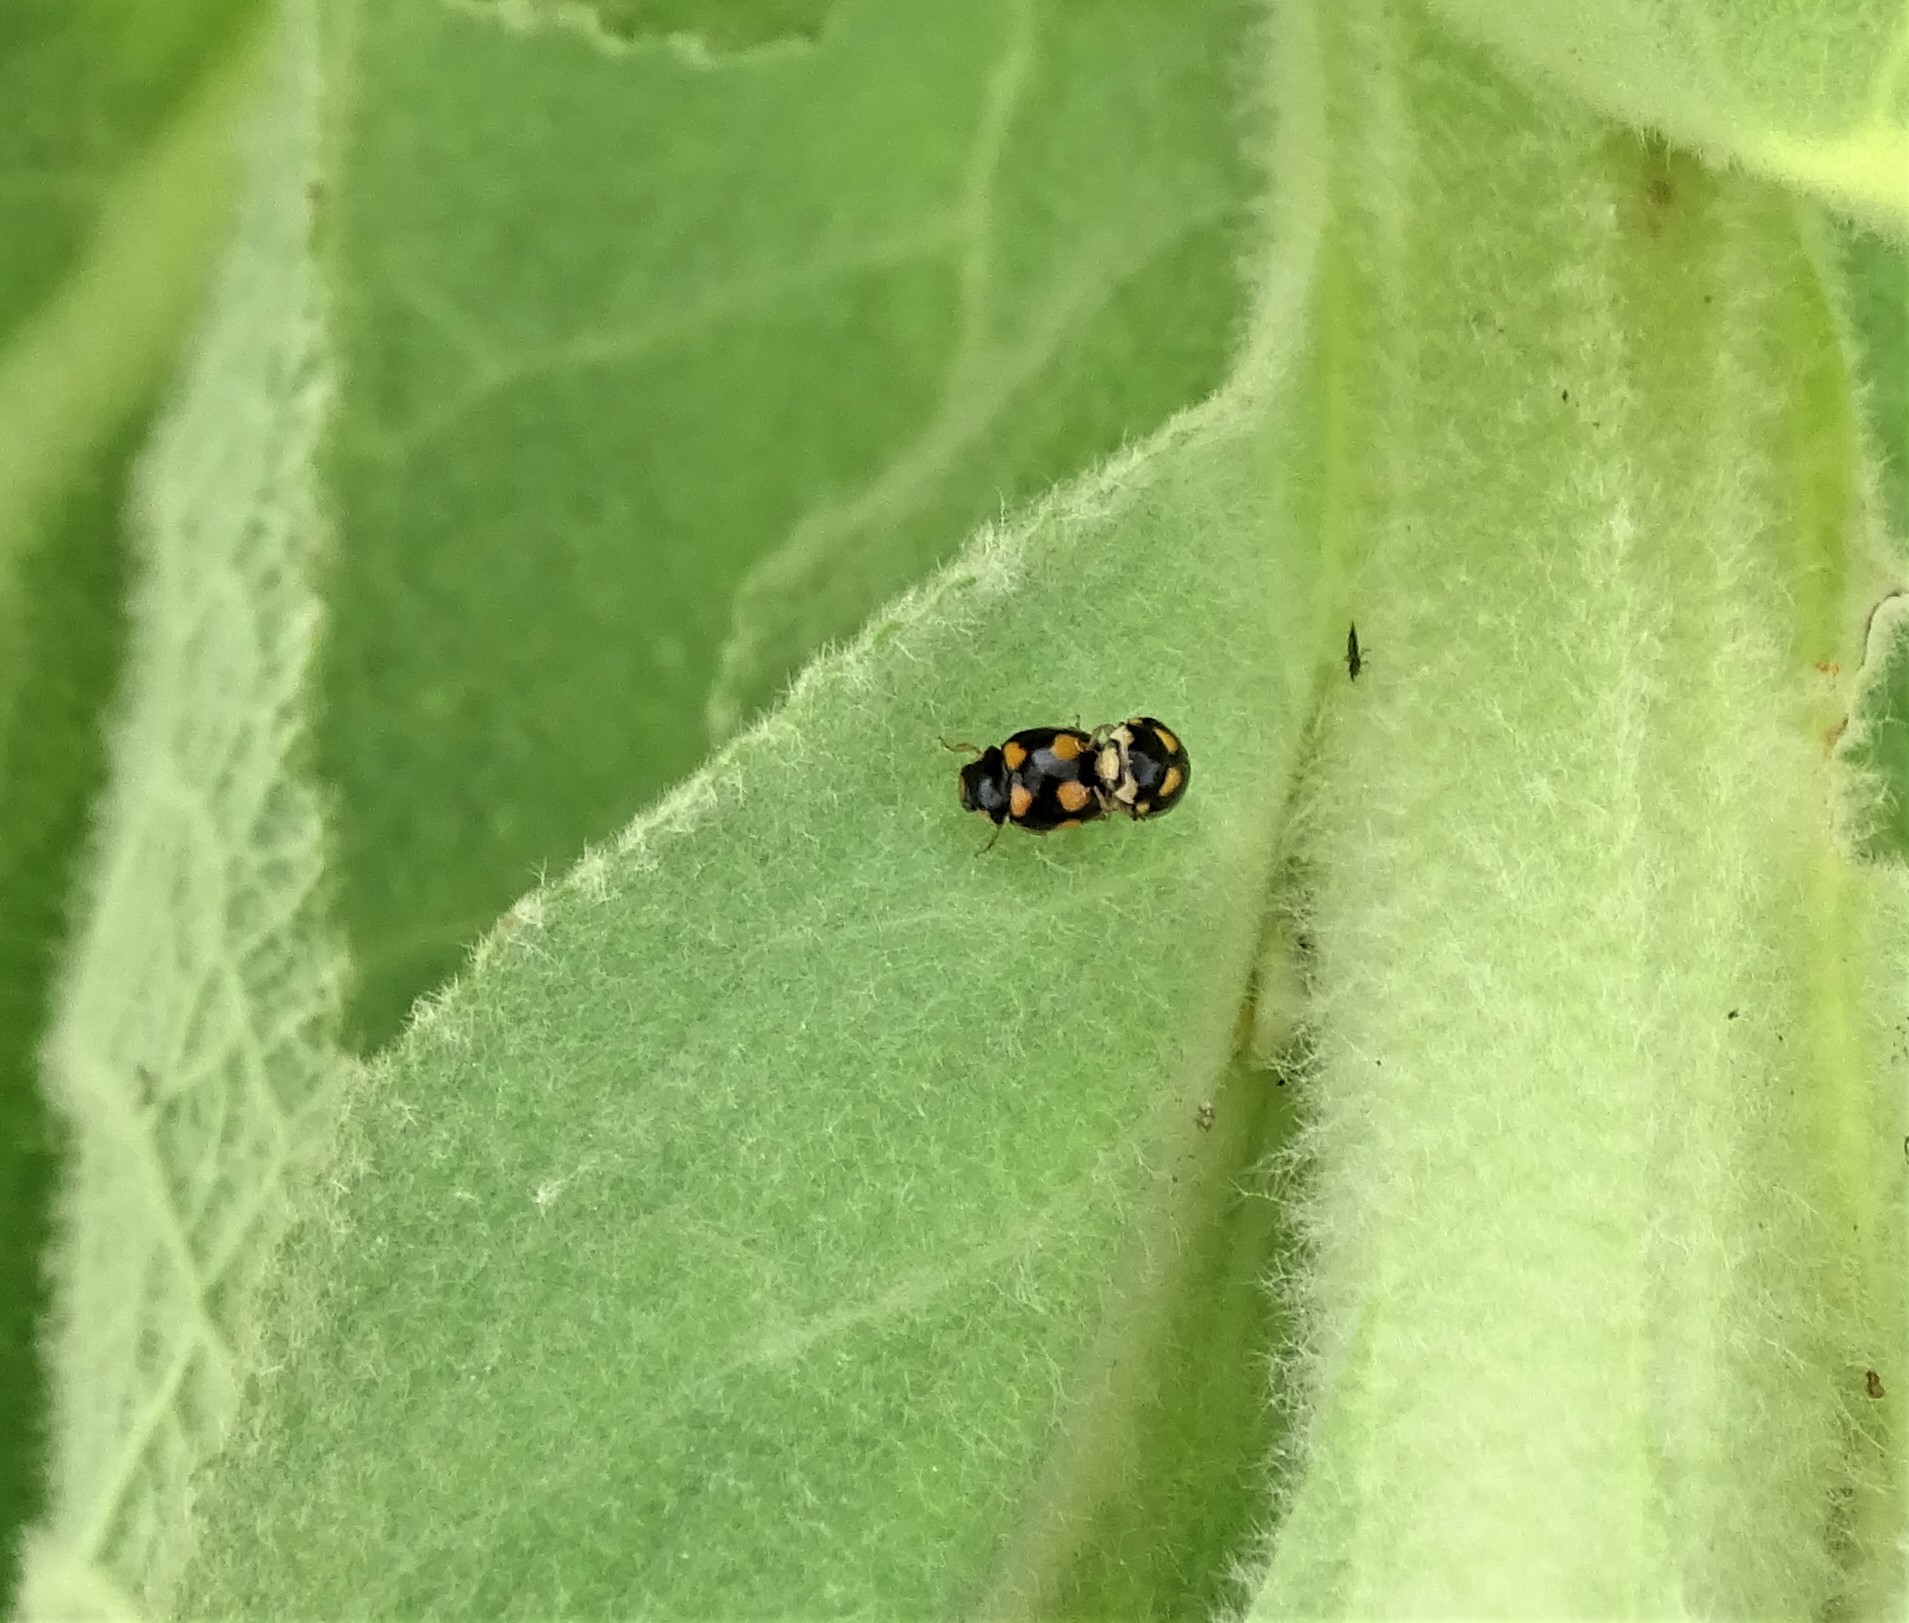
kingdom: Animalia
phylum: Arthropoda
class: Insecta
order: Coleoptera
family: Coccinellidae
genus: Brachiacantha
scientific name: Brachiacantha ursina
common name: Ursine spurleg lady beetle
